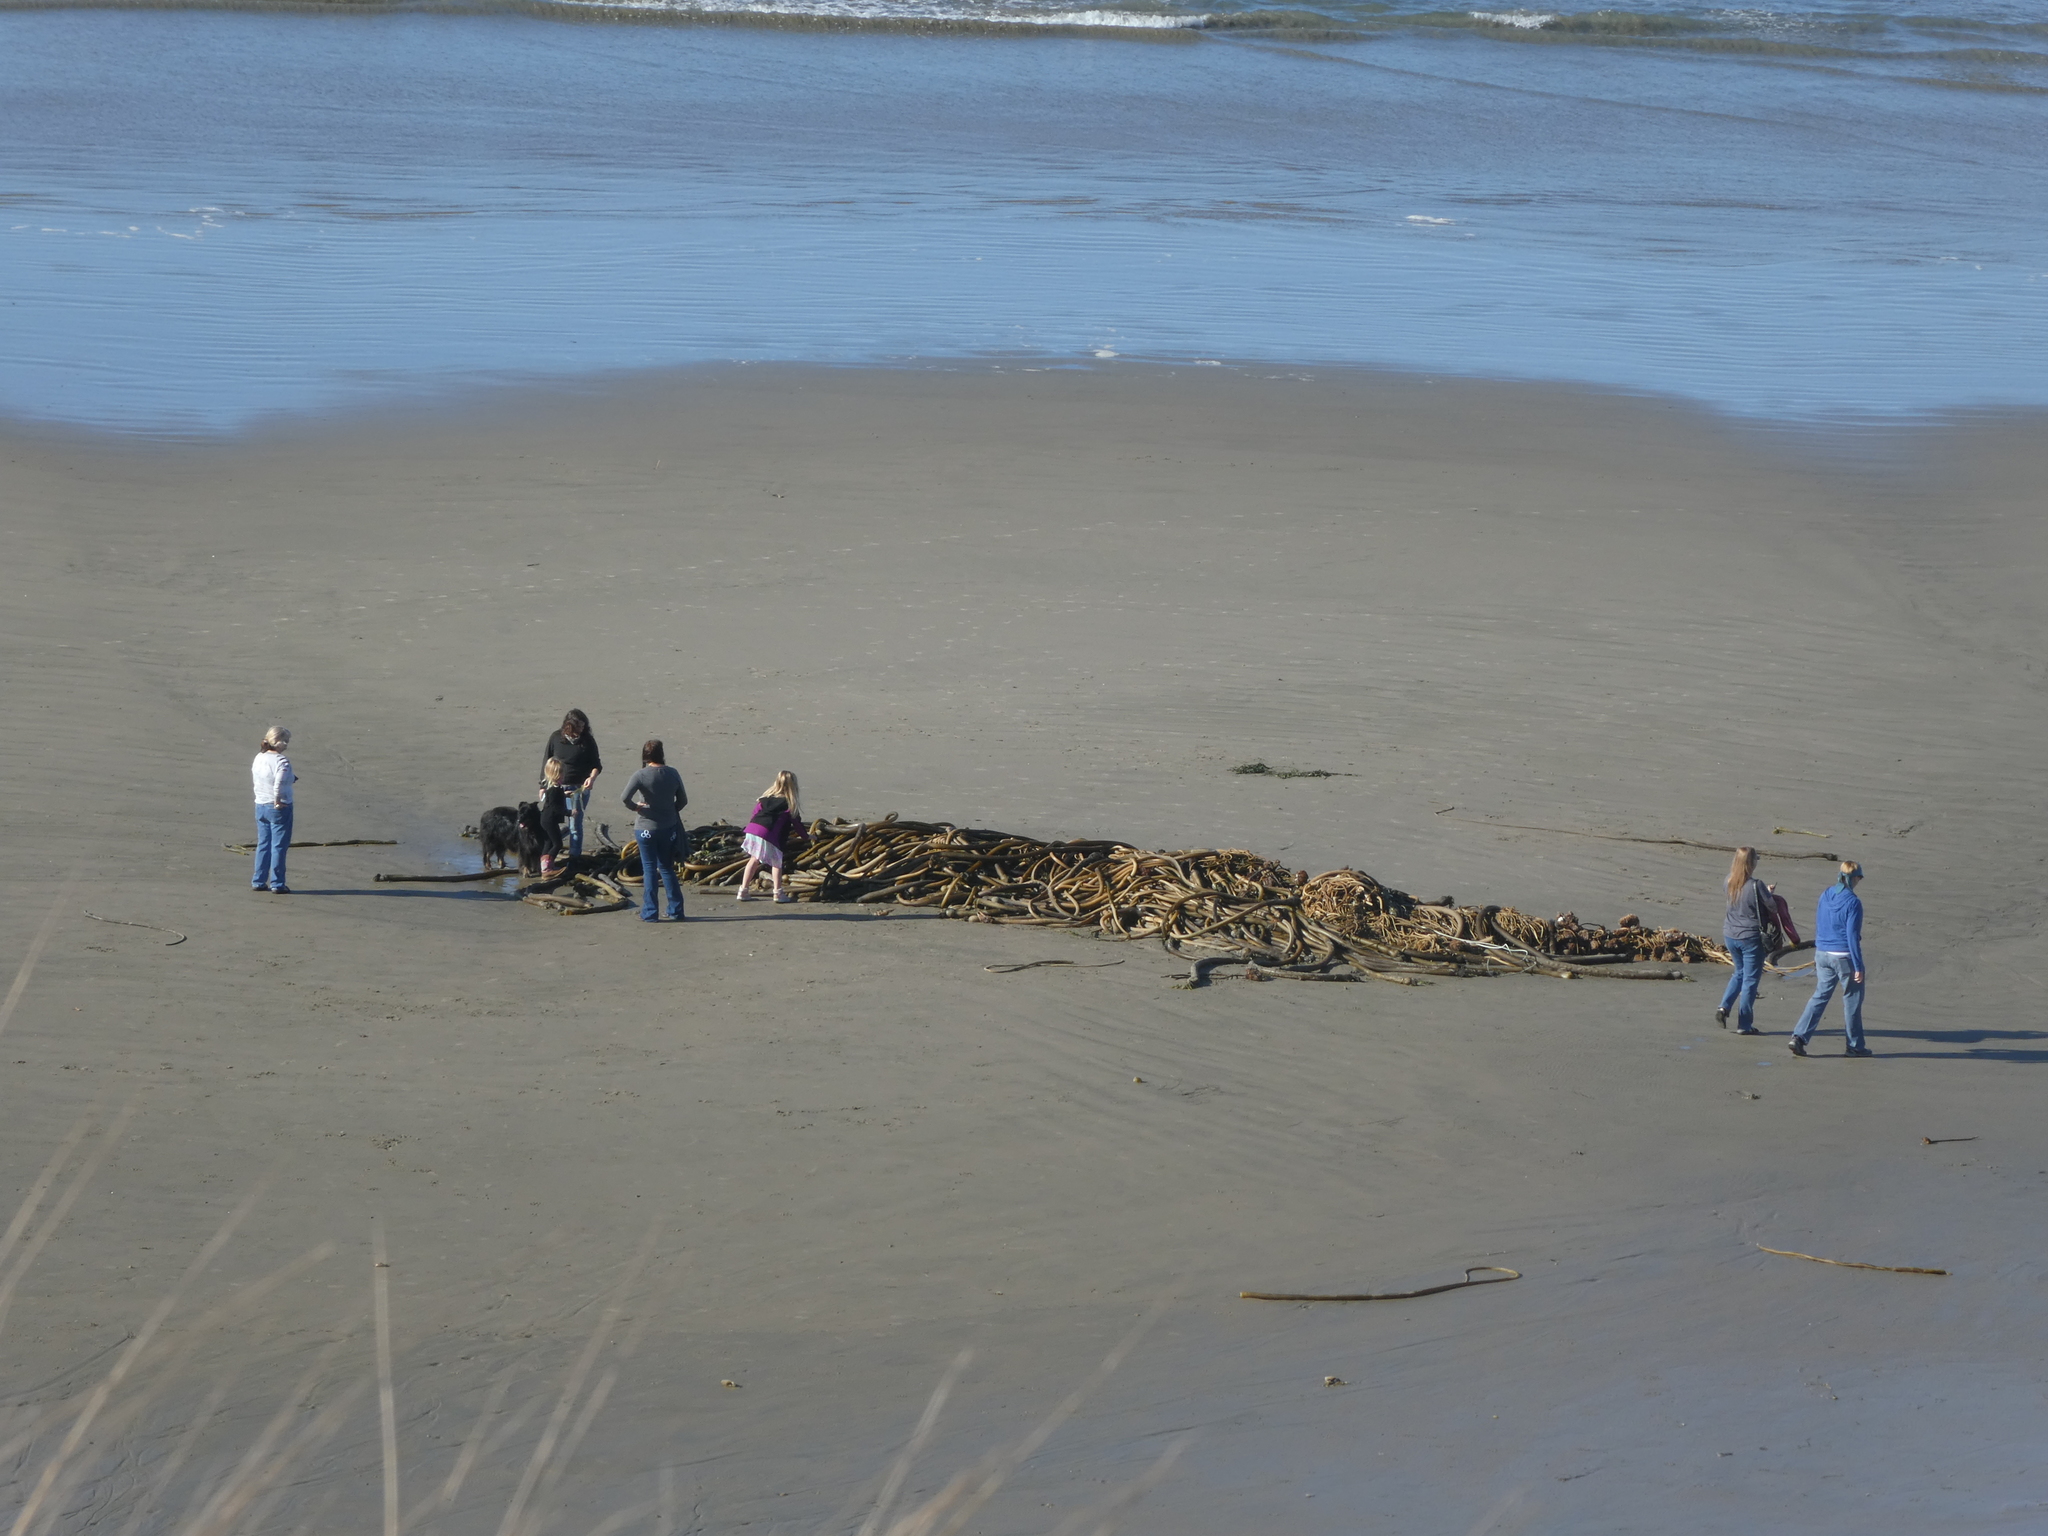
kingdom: Chromista
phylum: Ochrophyta
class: Phaeophyceae
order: Laminariales
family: Laminariaceae
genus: Nereocystis
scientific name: Nereocystis luetkeana
